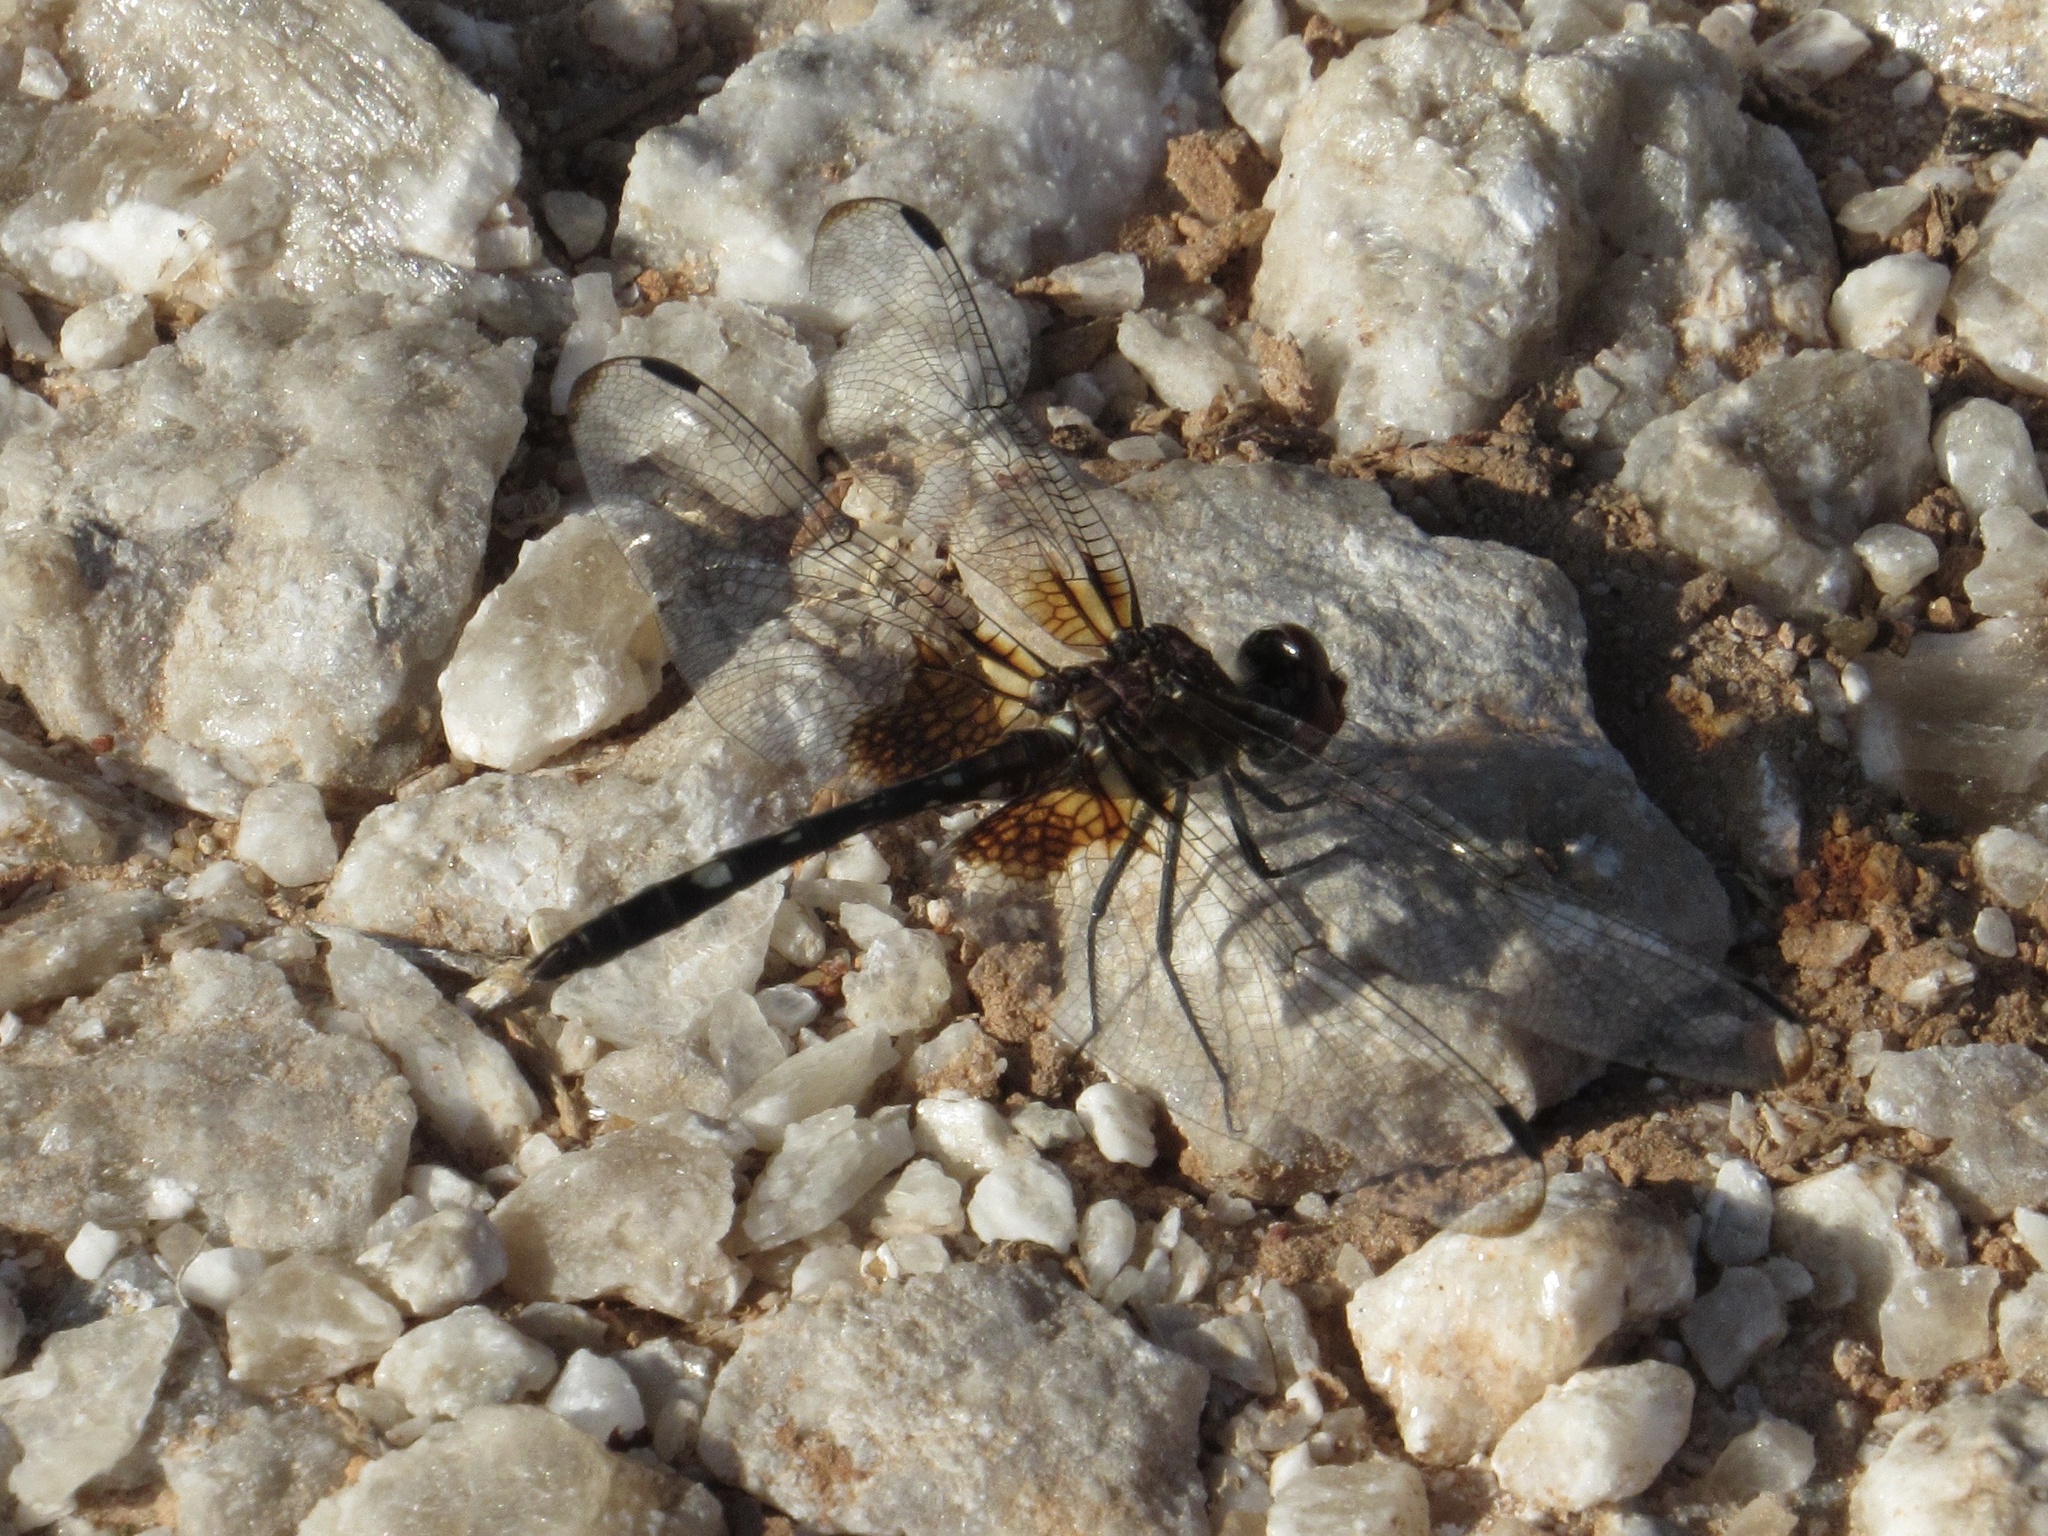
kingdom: Animalia
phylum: Arthropoda
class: Insecta
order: Odonata
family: Libellulidae
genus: Dythemis
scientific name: Dythemis fugax
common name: Checkered setwing
